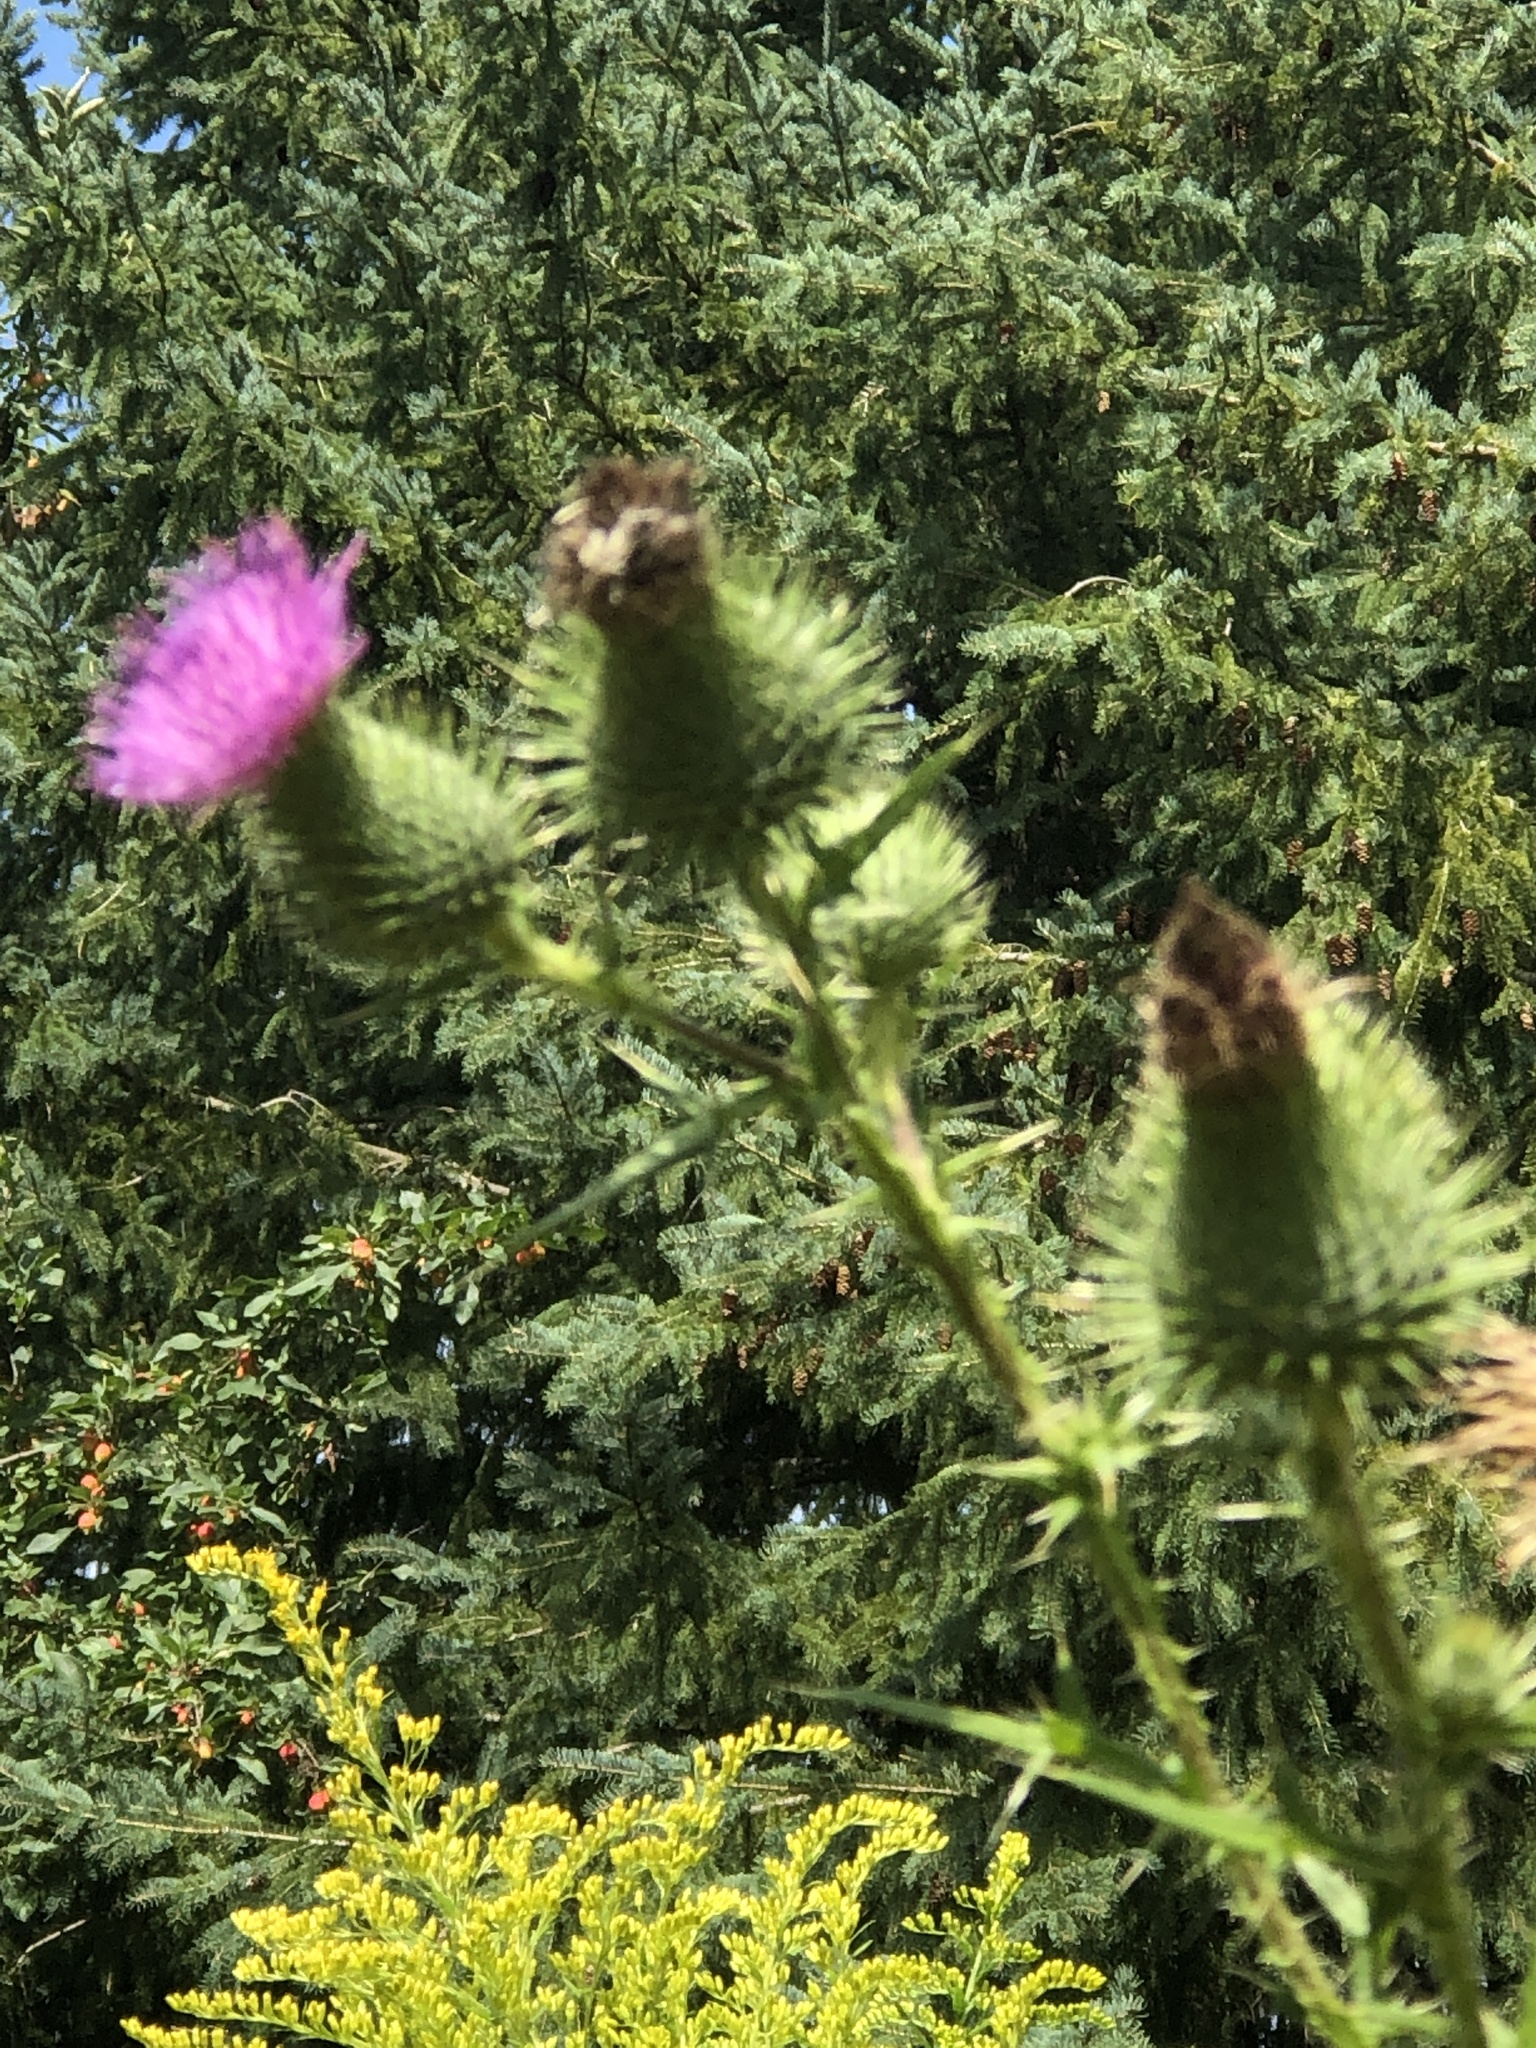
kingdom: Plantae
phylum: Tracheophyta
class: Magnoliopsida
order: Asterales
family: Asteraceae
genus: Cirsium
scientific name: Cirsium vulgare
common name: Bull thistle
